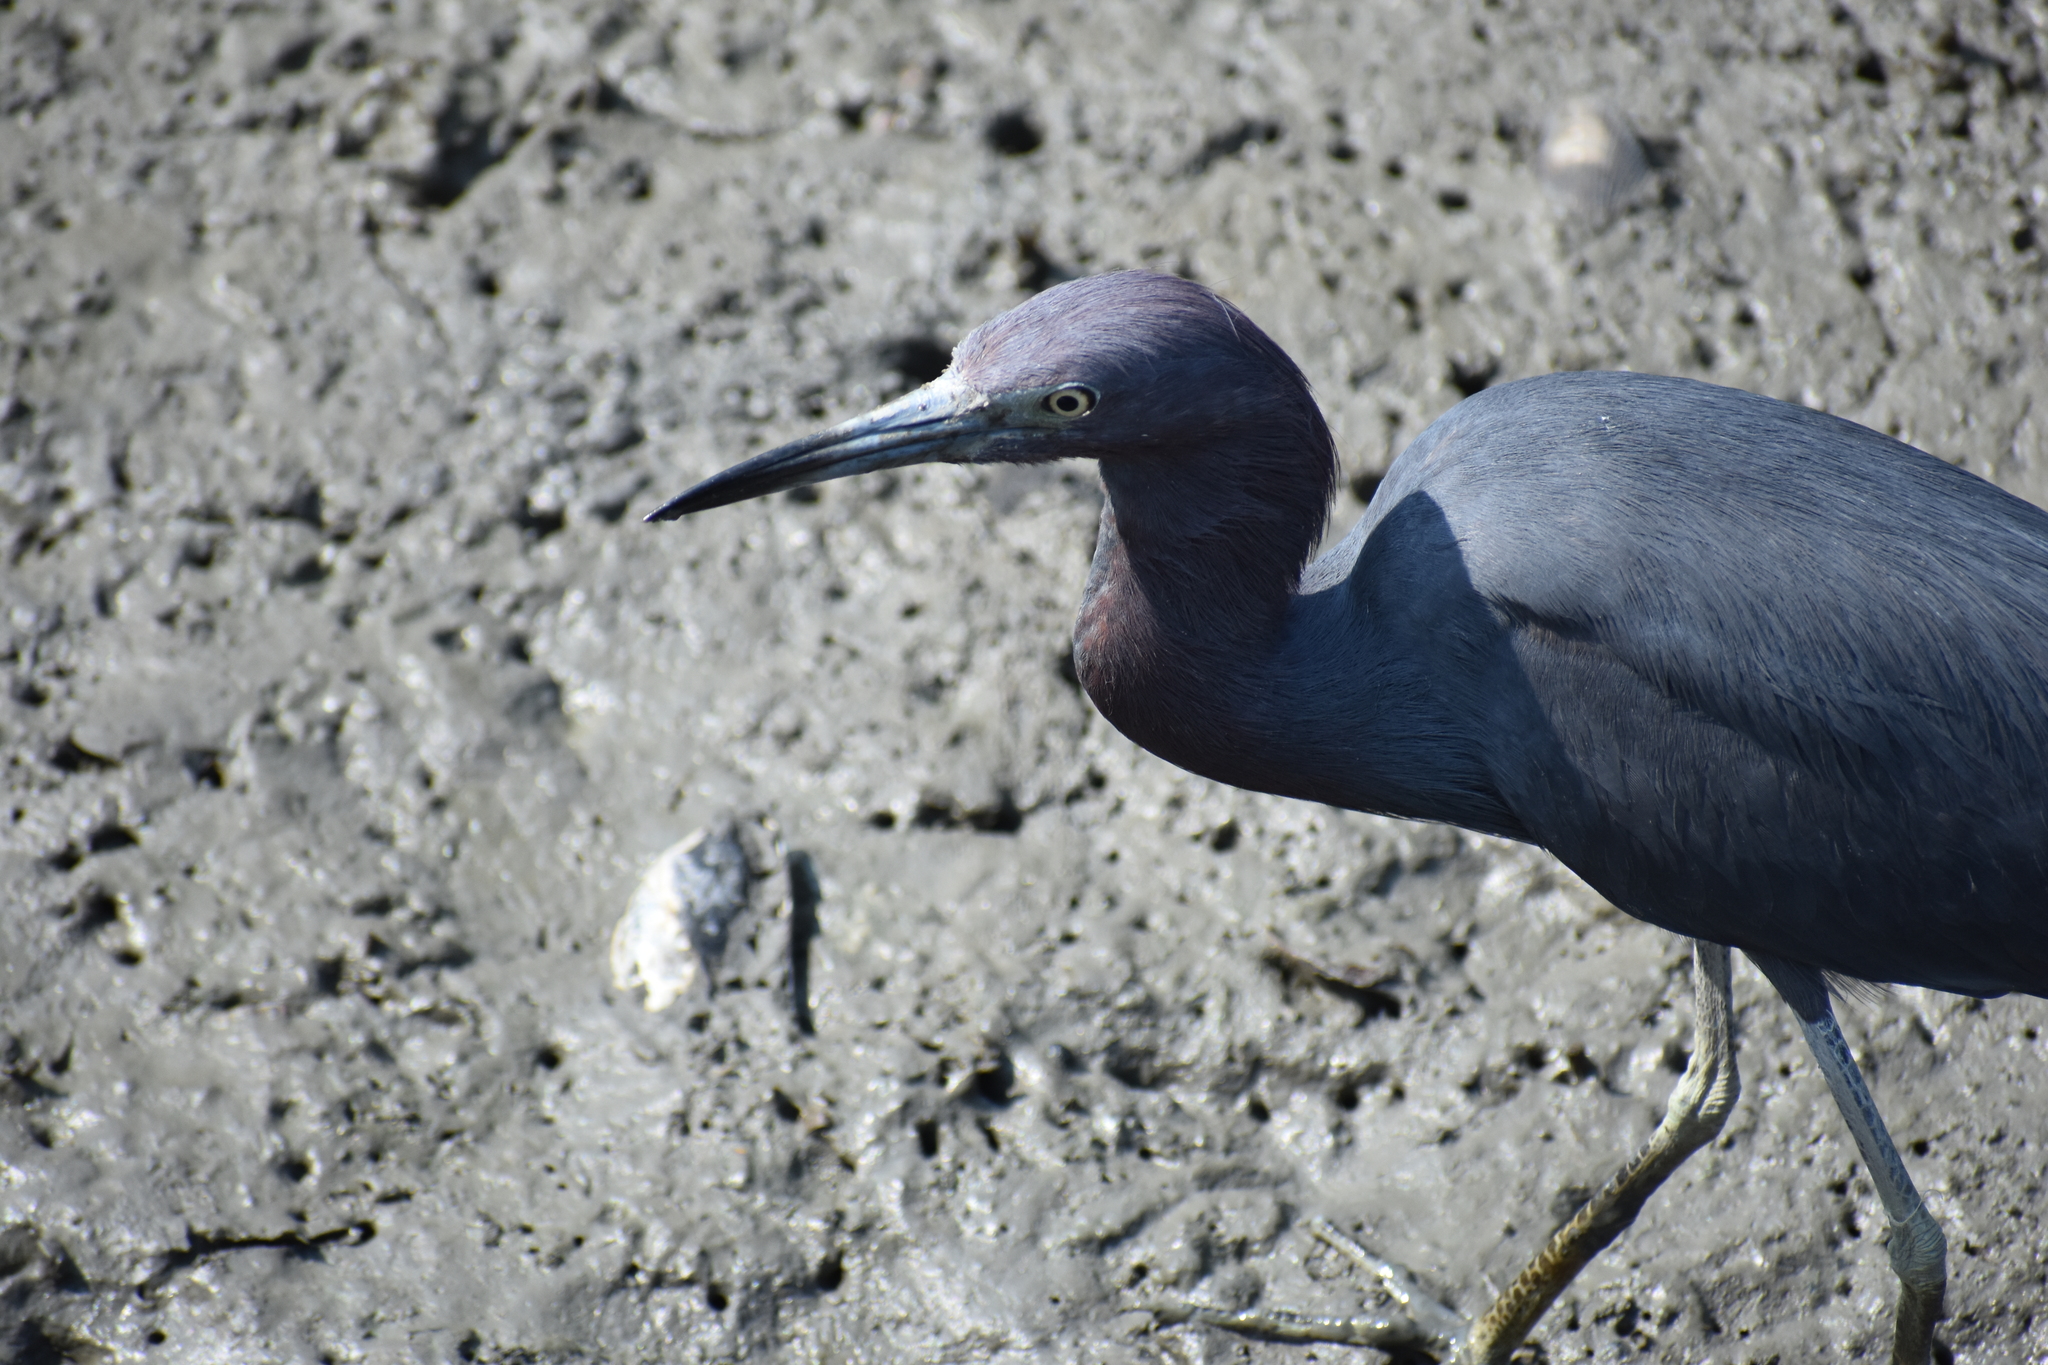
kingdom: Animalia
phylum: Chordata
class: Aves
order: Pelecaniformes
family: Ardeidae
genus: Egretta
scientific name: Egretta caerulea
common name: Little blue heron
